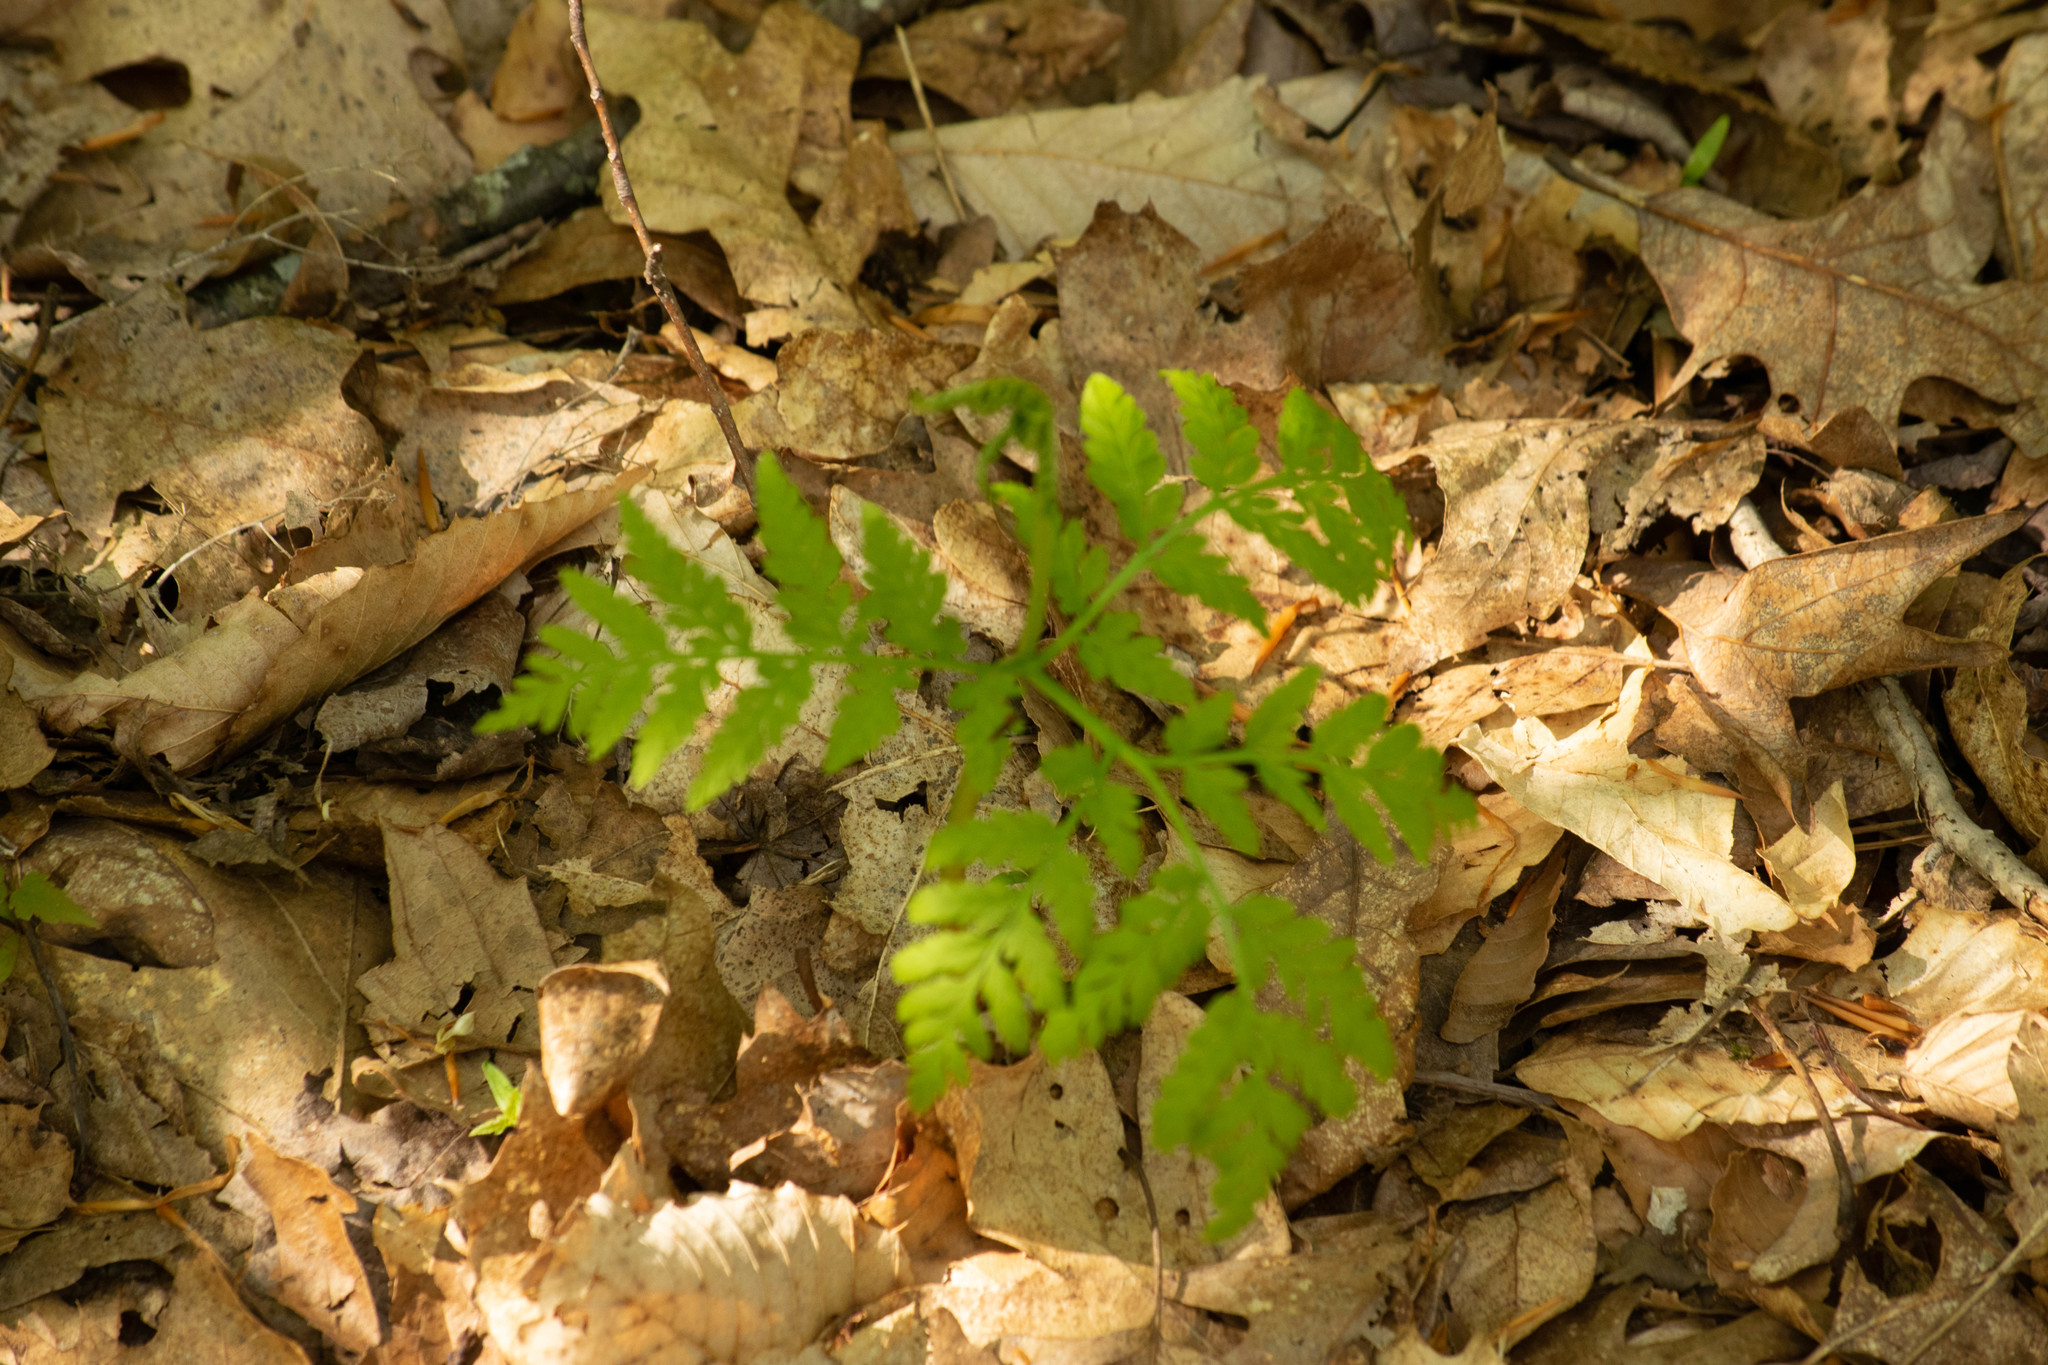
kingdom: Plantae
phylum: Tracheophyta
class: Polypodiopsida
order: Ophioglossales
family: Ophioglossaceae
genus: Botrypus
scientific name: Botrypus virginianus
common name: Common grapefern
